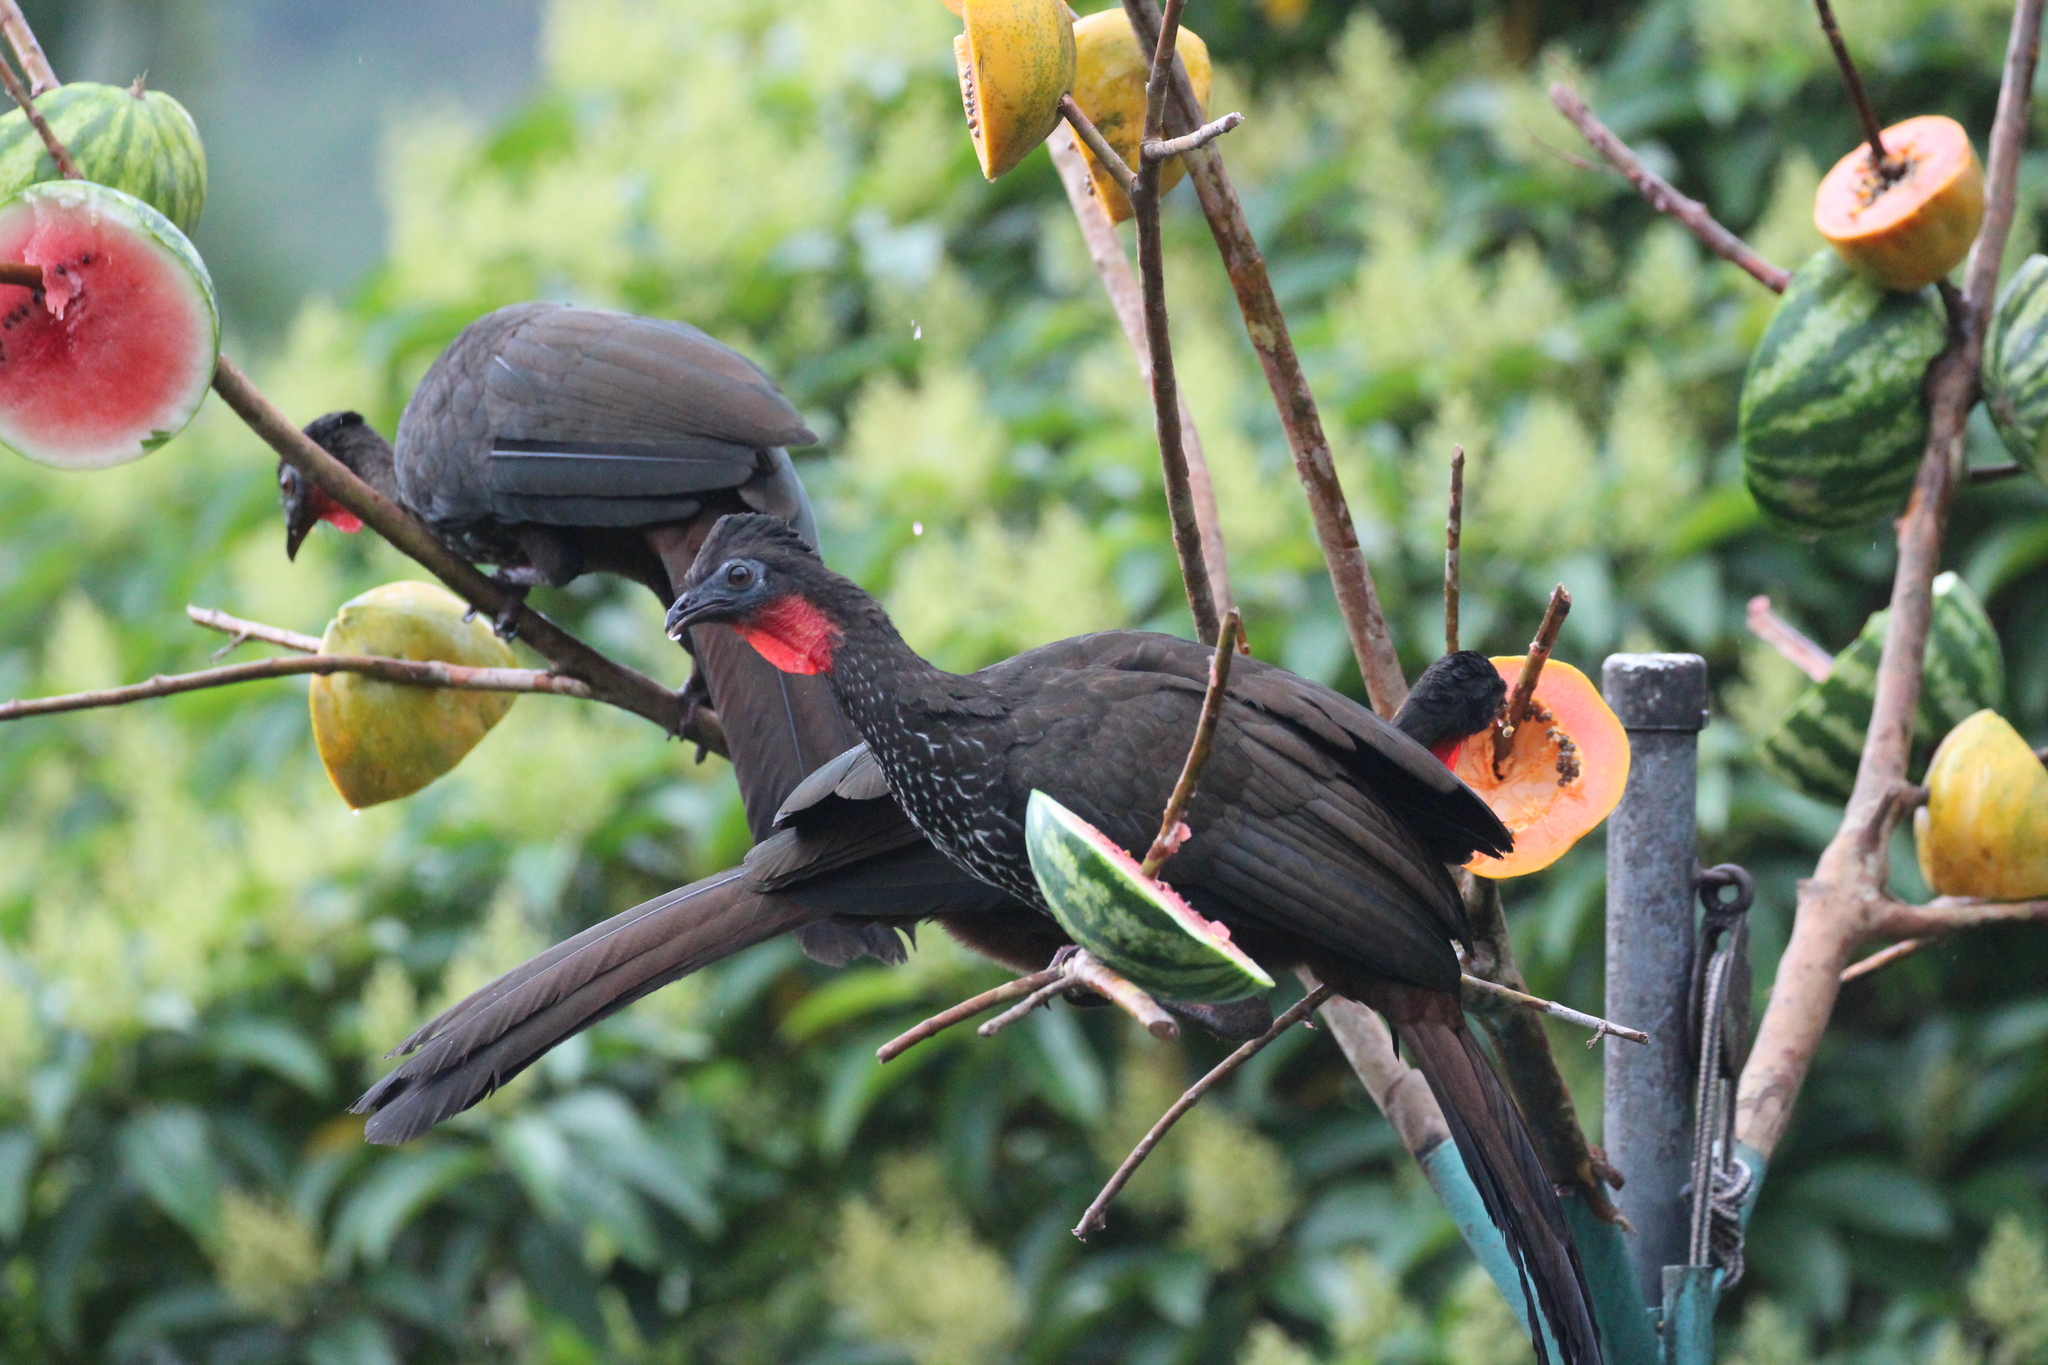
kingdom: Animalia
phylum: Chordata
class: Aves
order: Galliformes
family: Cracidae
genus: Penelope
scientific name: Penelope purpurascens
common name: Crested guan
